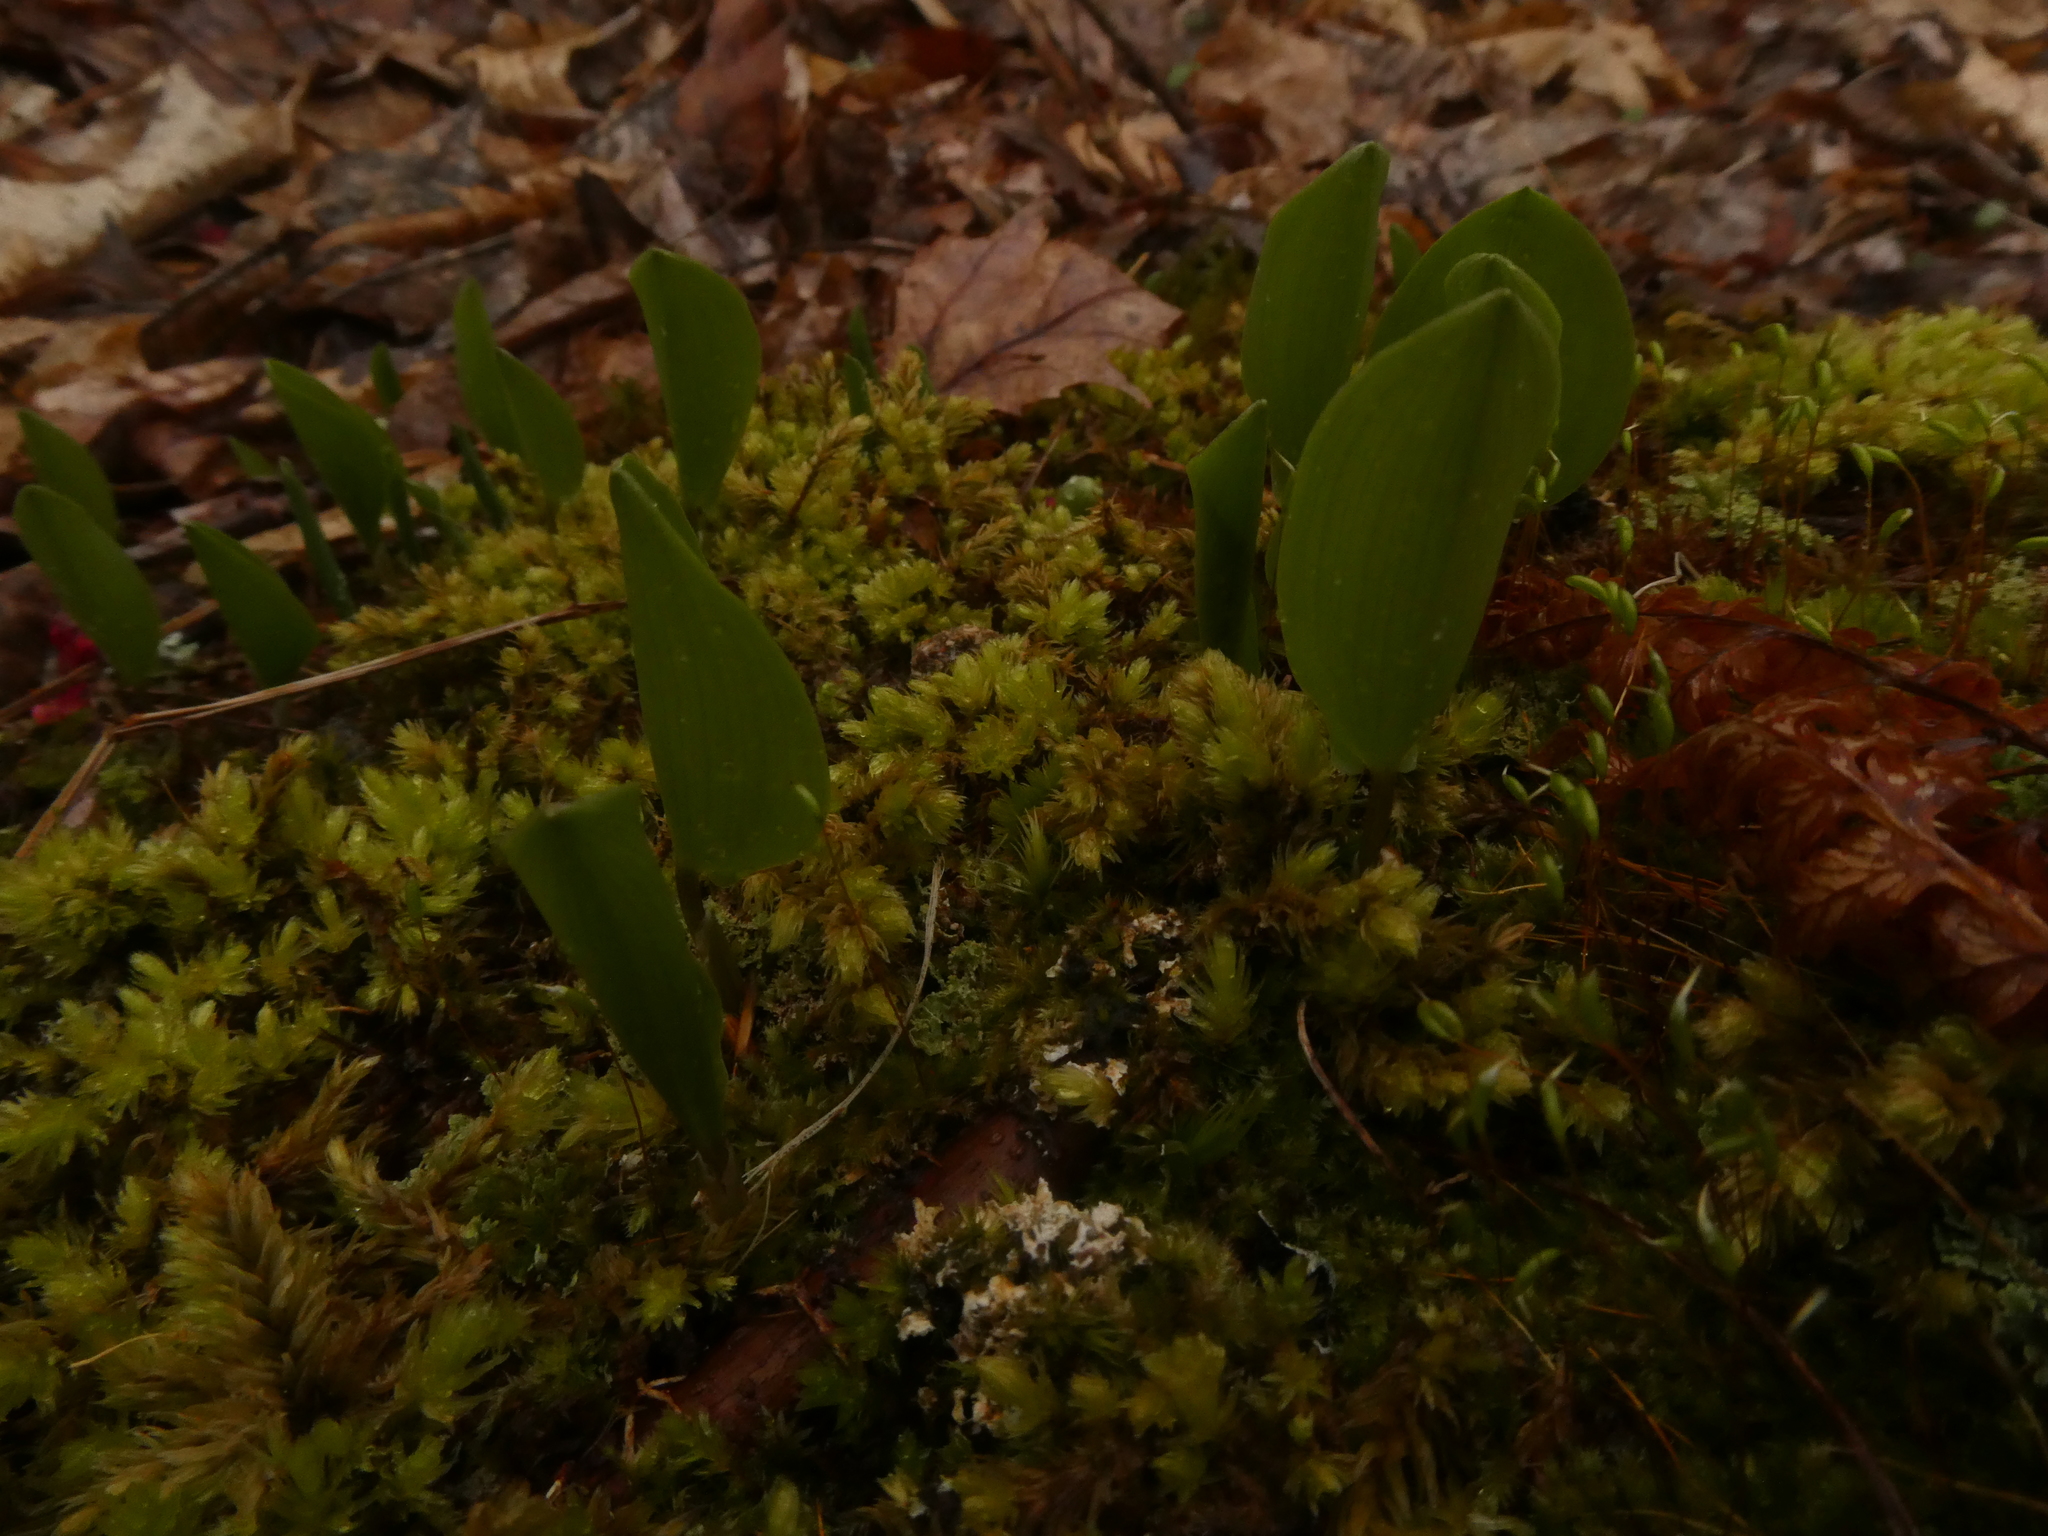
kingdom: Plantae
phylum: Tracheophyta
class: Liliopsida
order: Asparagales
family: Asparagaceae
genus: Maianthemum
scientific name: Maianthemum canadense
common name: False lily-of-the-valley
